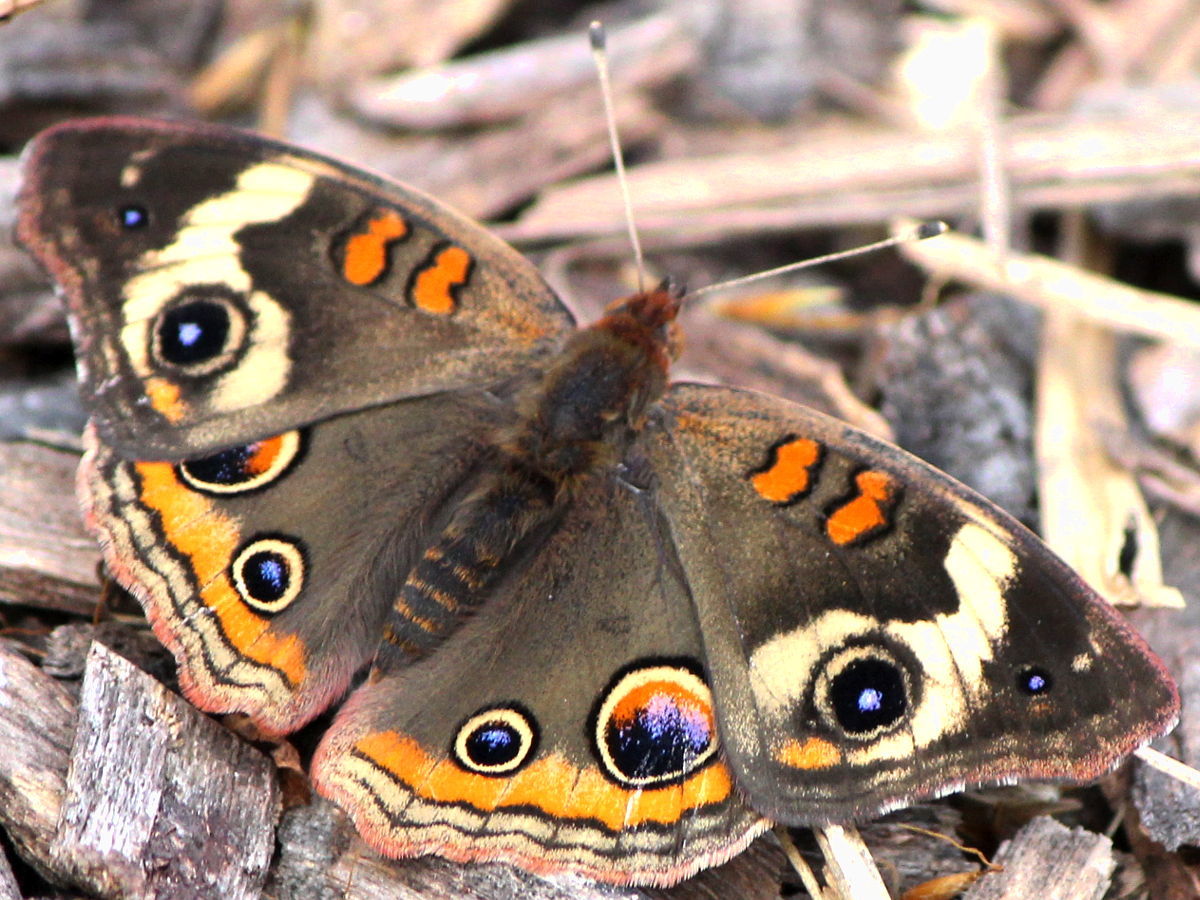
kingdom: Animalia
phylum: Arthropoda
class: Insecta
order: Lepidoptera
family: Nymphalidae
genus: Junonia
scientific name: Junonia coenia
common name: Common buckeye
